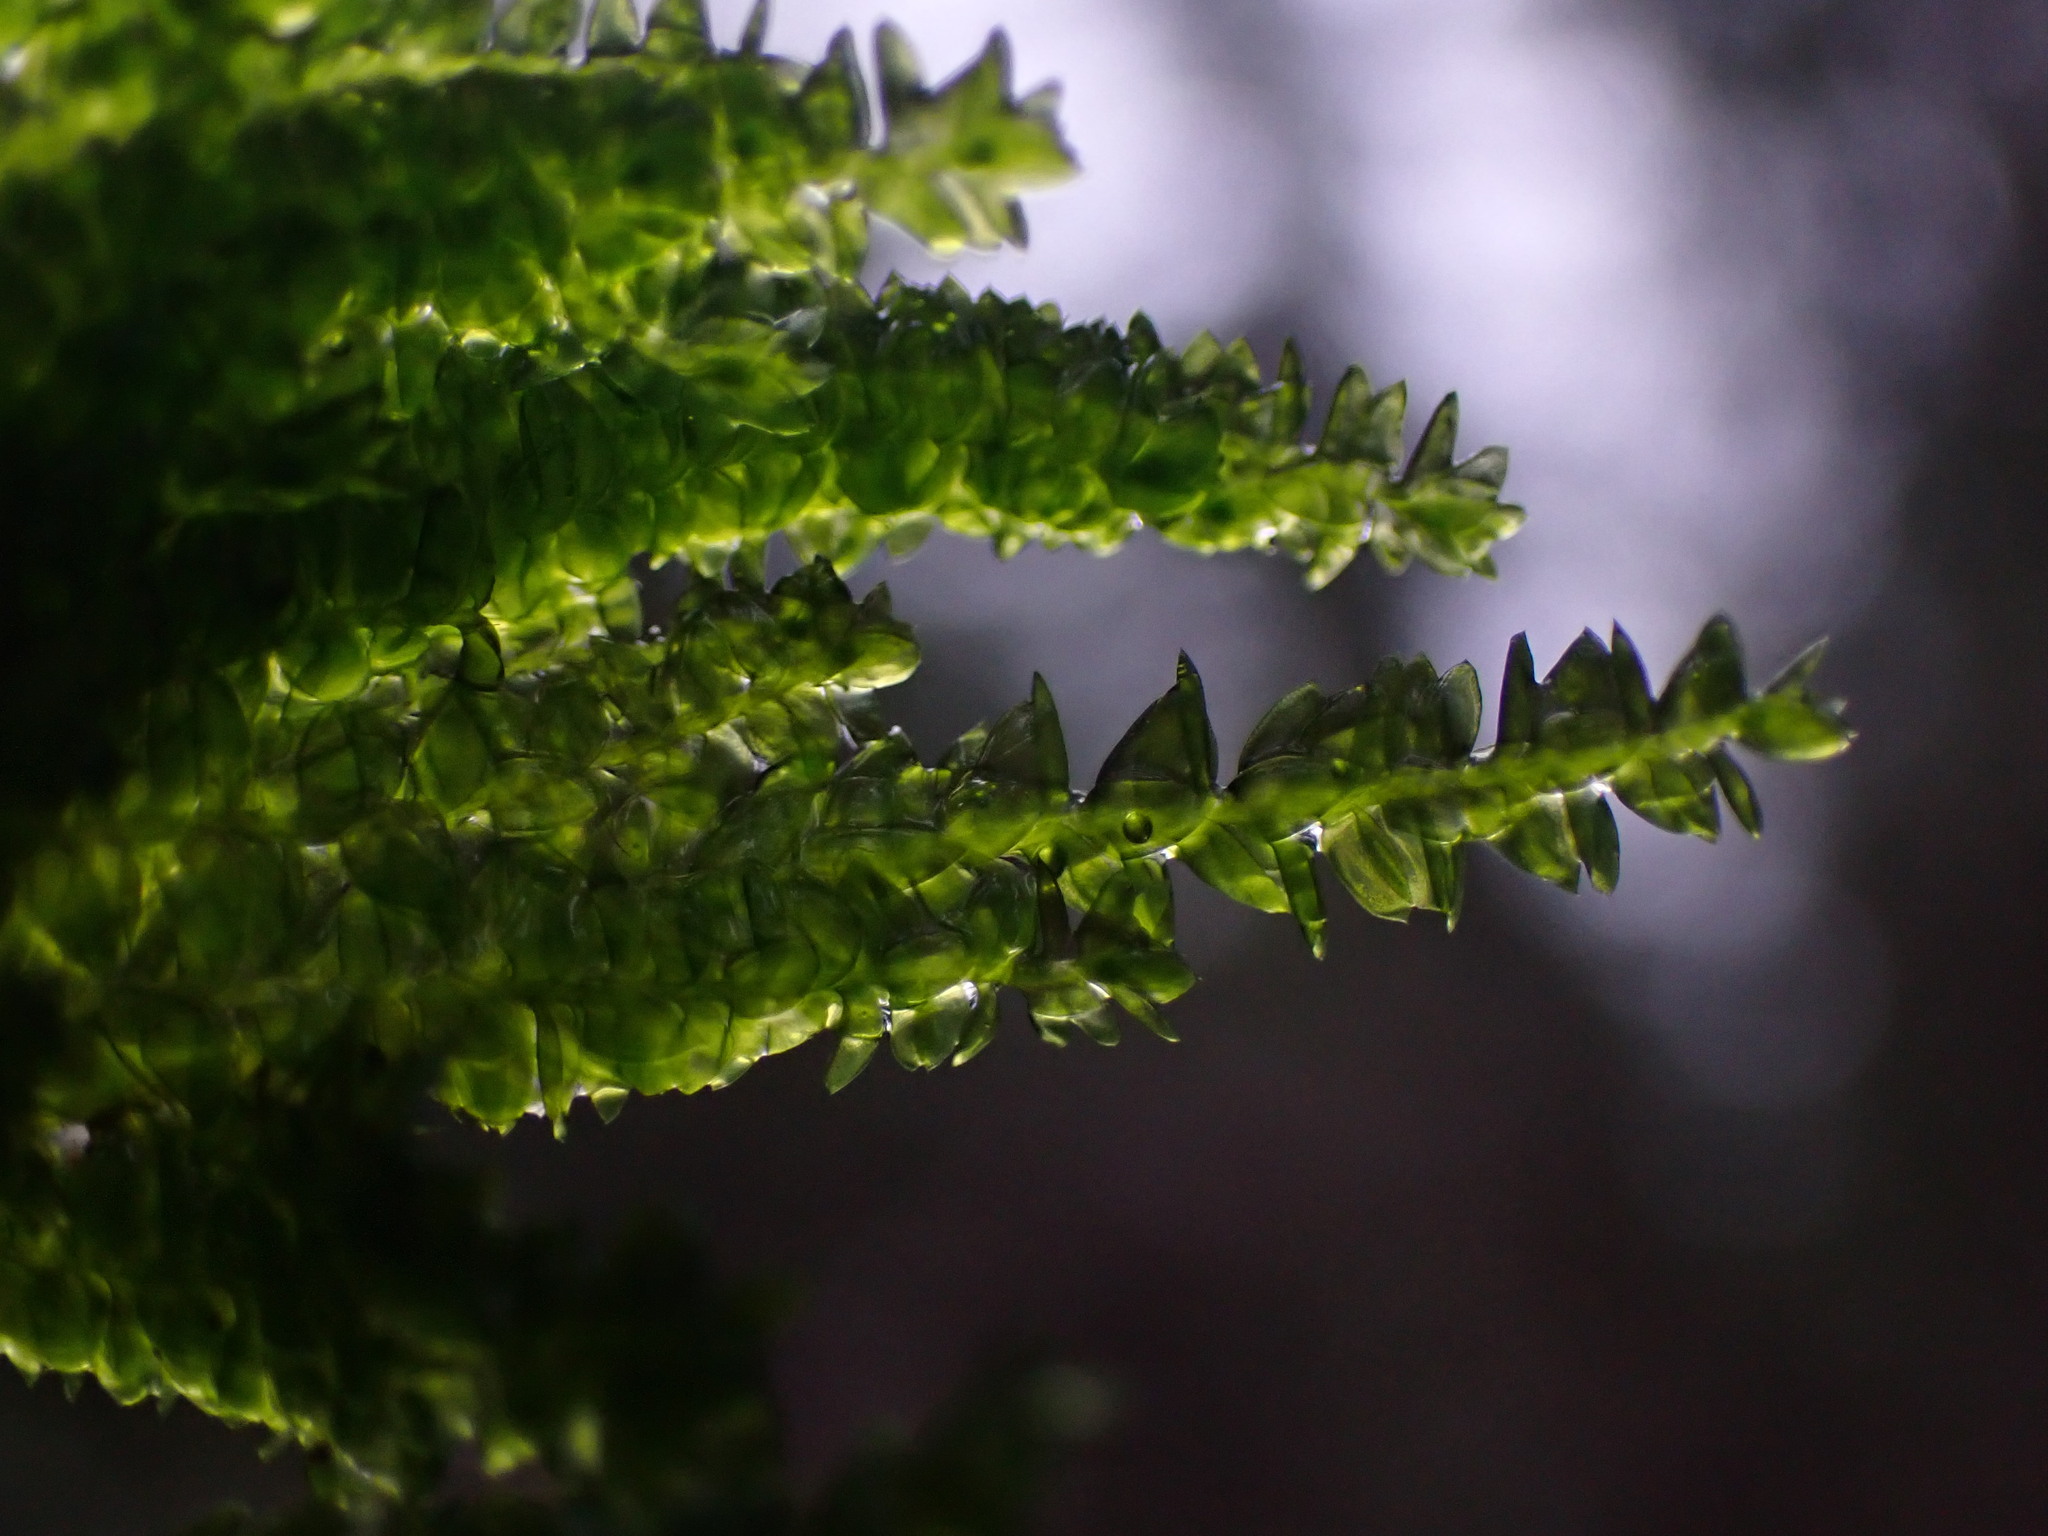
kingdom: Plantae
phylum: Bryophyta
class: Bryopsida
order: Hypnales
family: Plagiotheciaceae
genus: Plagiothecium
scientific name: Plagiothecium denticulatum
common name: Dented silk moss
